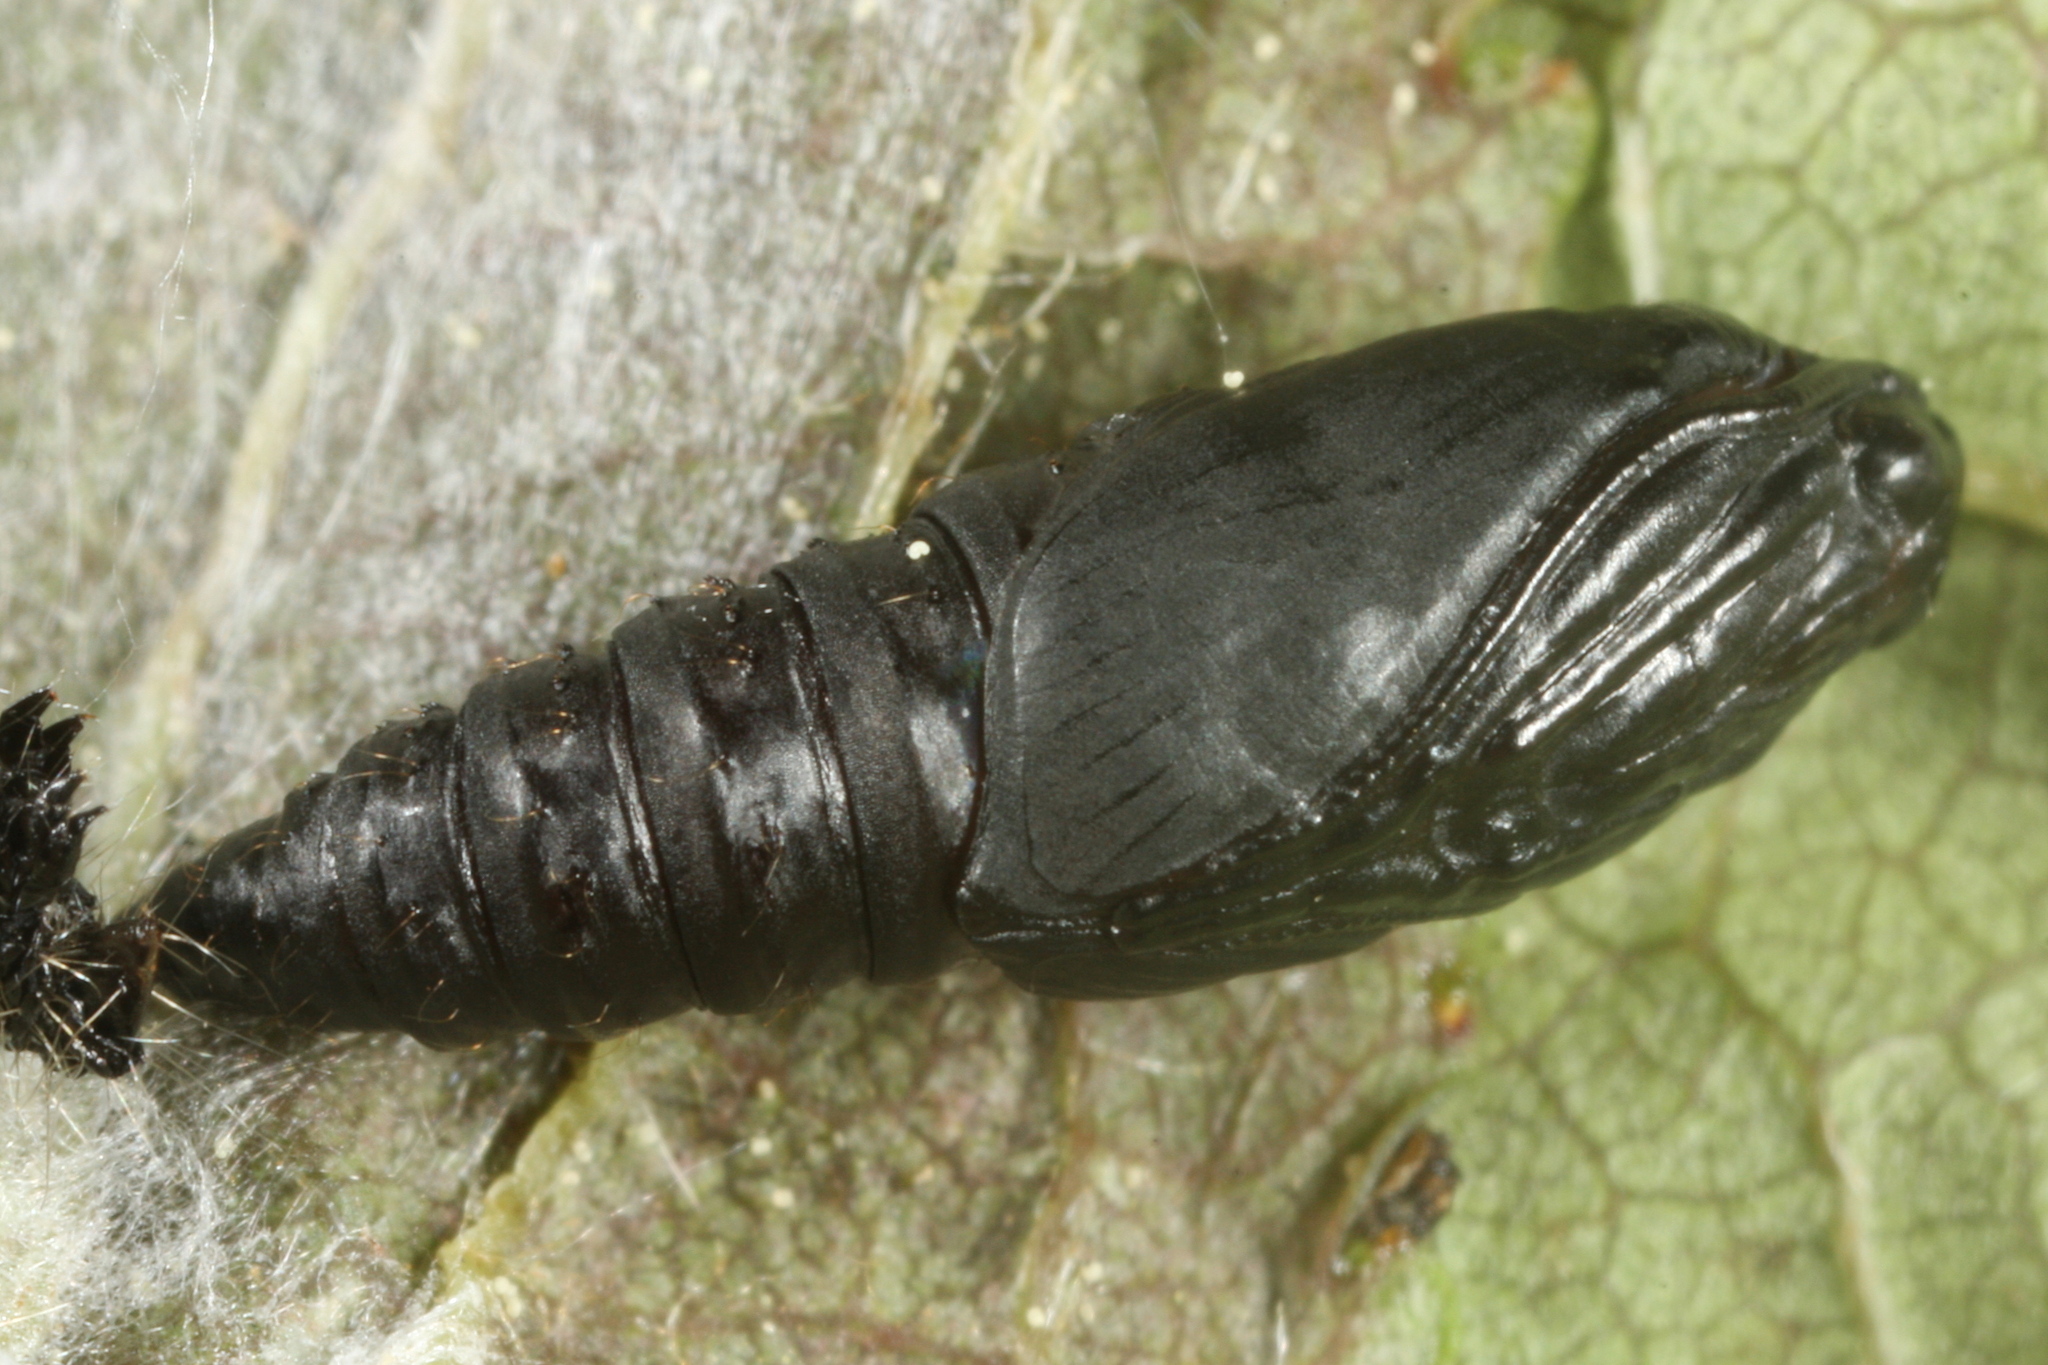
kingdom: Animalia
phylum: Arthropoda
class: Insecta
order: Lepidoptera
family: Tortricidae
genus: Hedya
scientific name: Hedya nubiferana
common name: Marbled orchard tortrix
